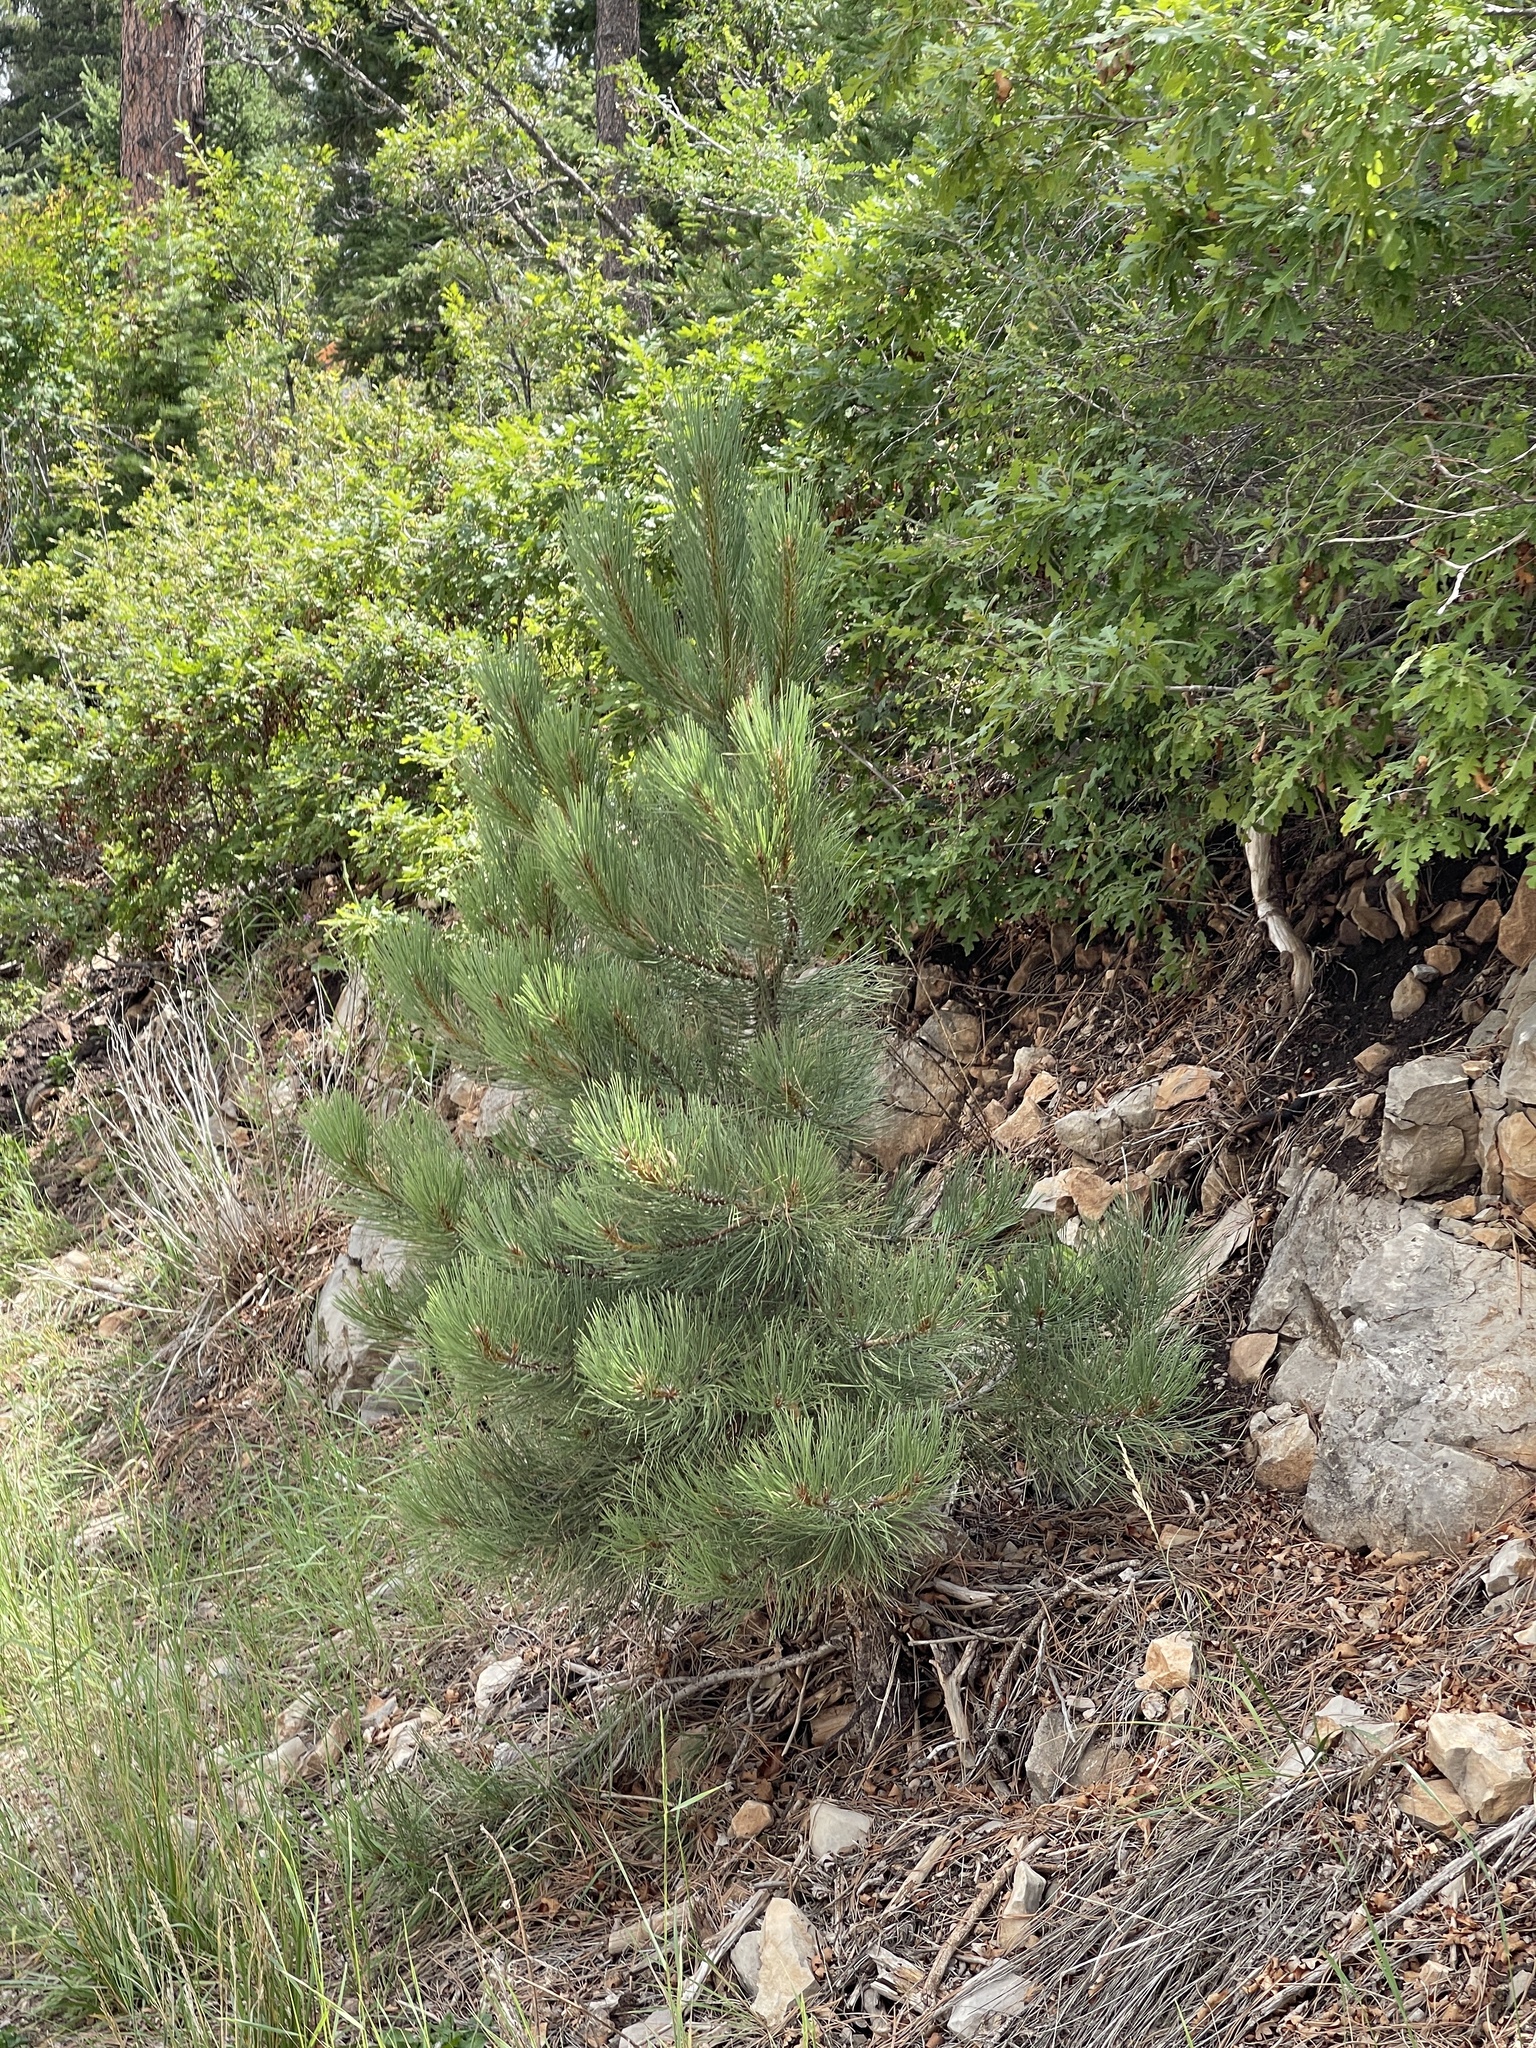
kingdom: Plantae
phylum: Tracheophyta
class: Pinopsida
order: Pinales
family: Pinaceae
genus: Pinus
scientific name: Pinus ponderosa
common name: Western yellow-pine
